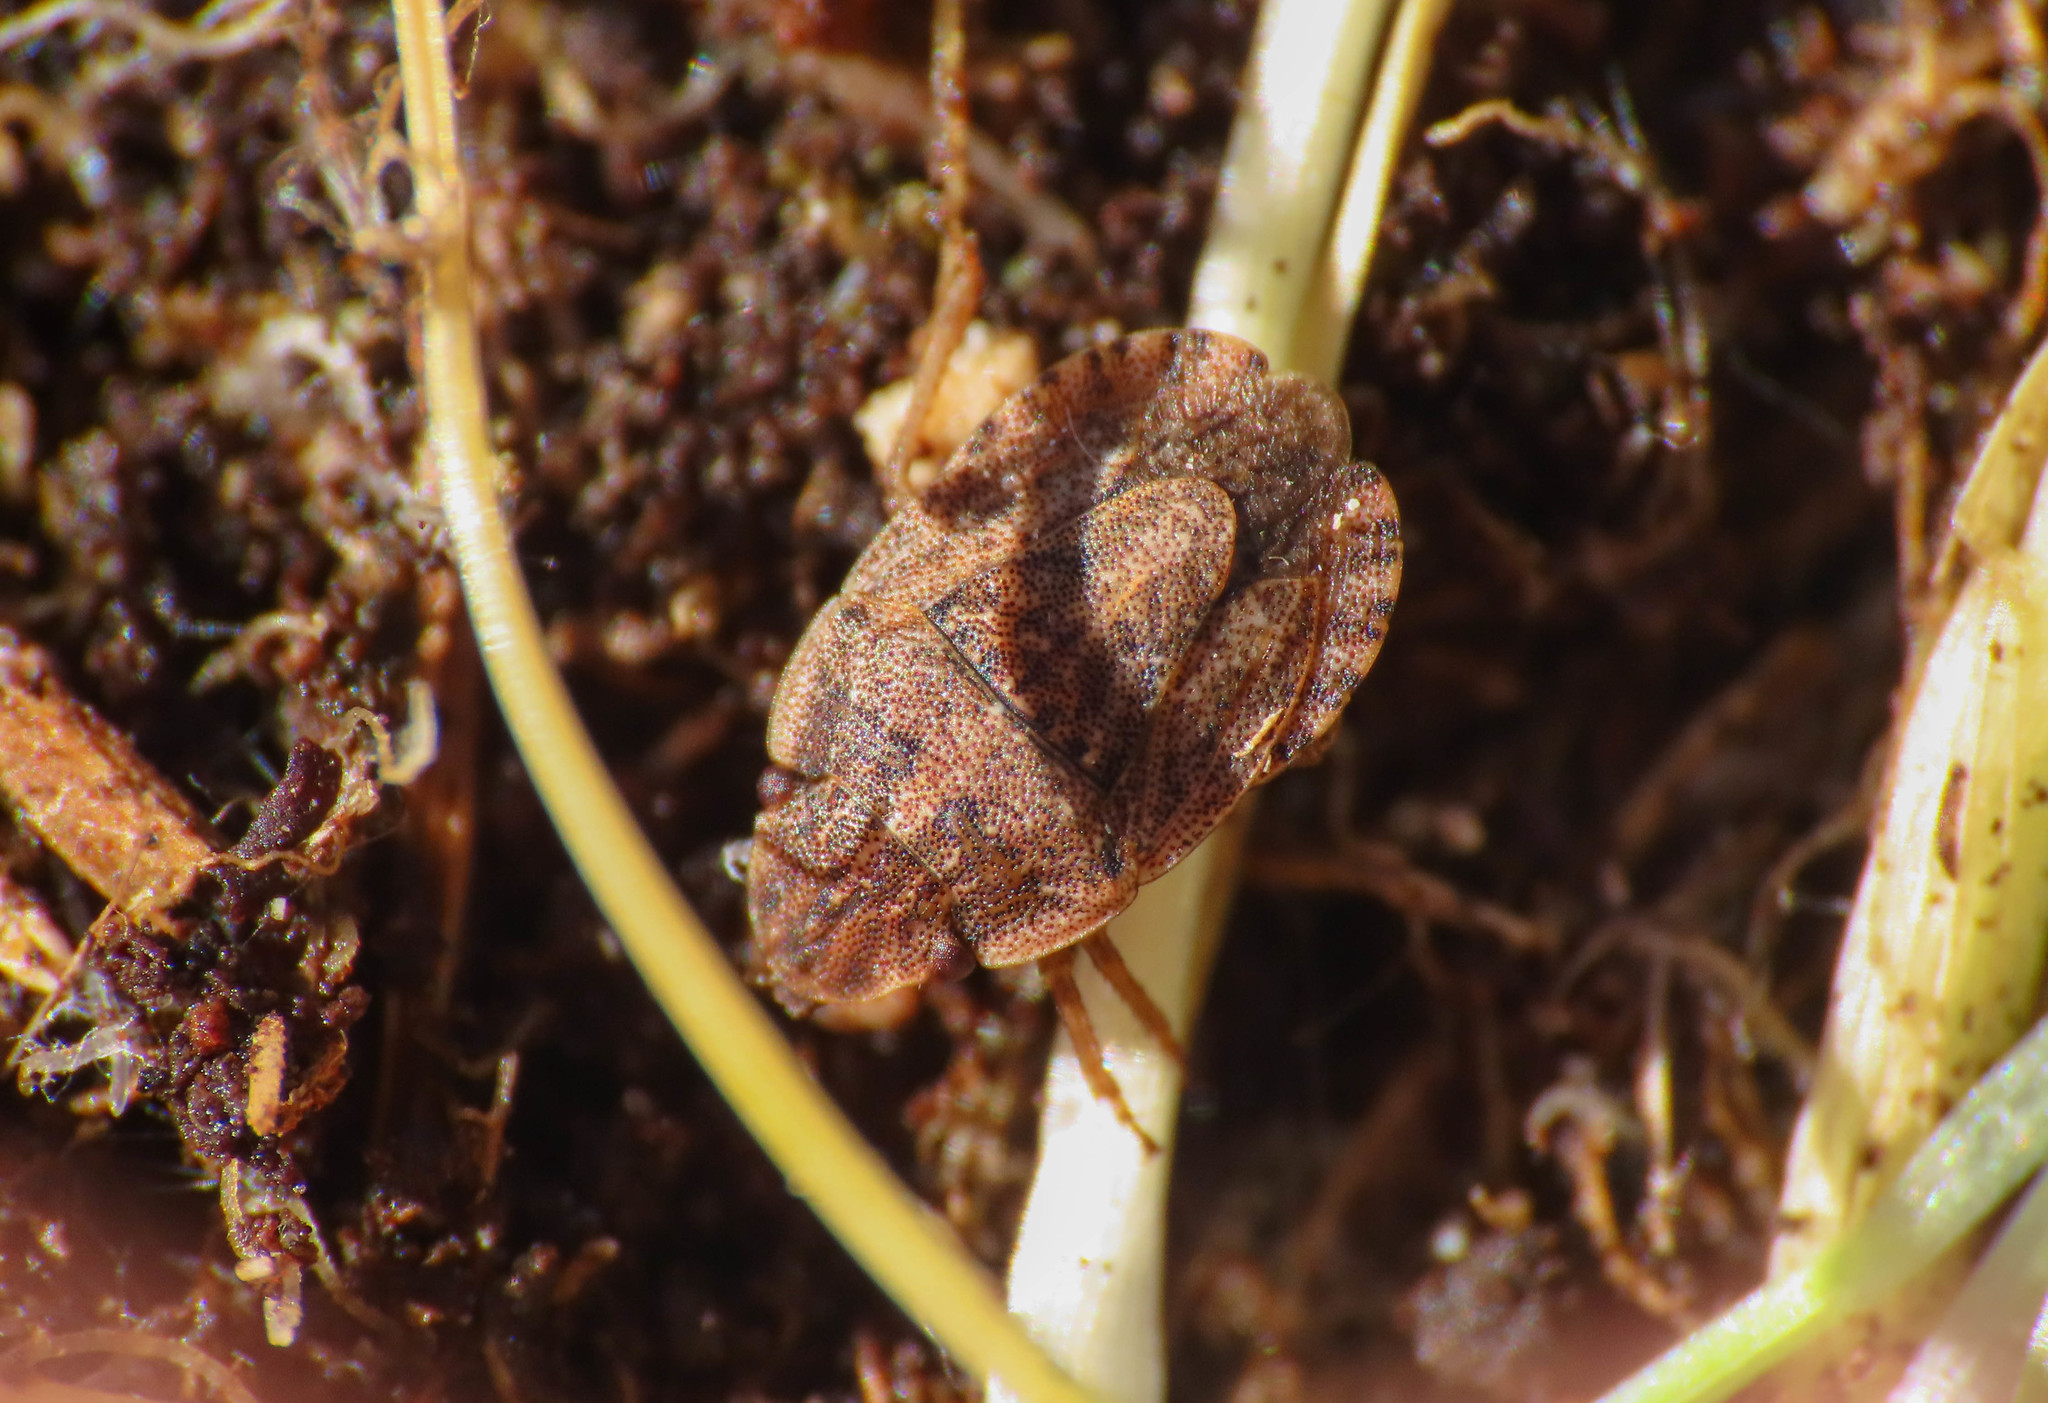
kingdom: Animalia
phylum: Arthropoda
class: Insecta
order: Hemiptera
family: Pentatomidae
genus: Sciocoris
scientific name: Sciocoris cursitans
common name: Sandrunner
